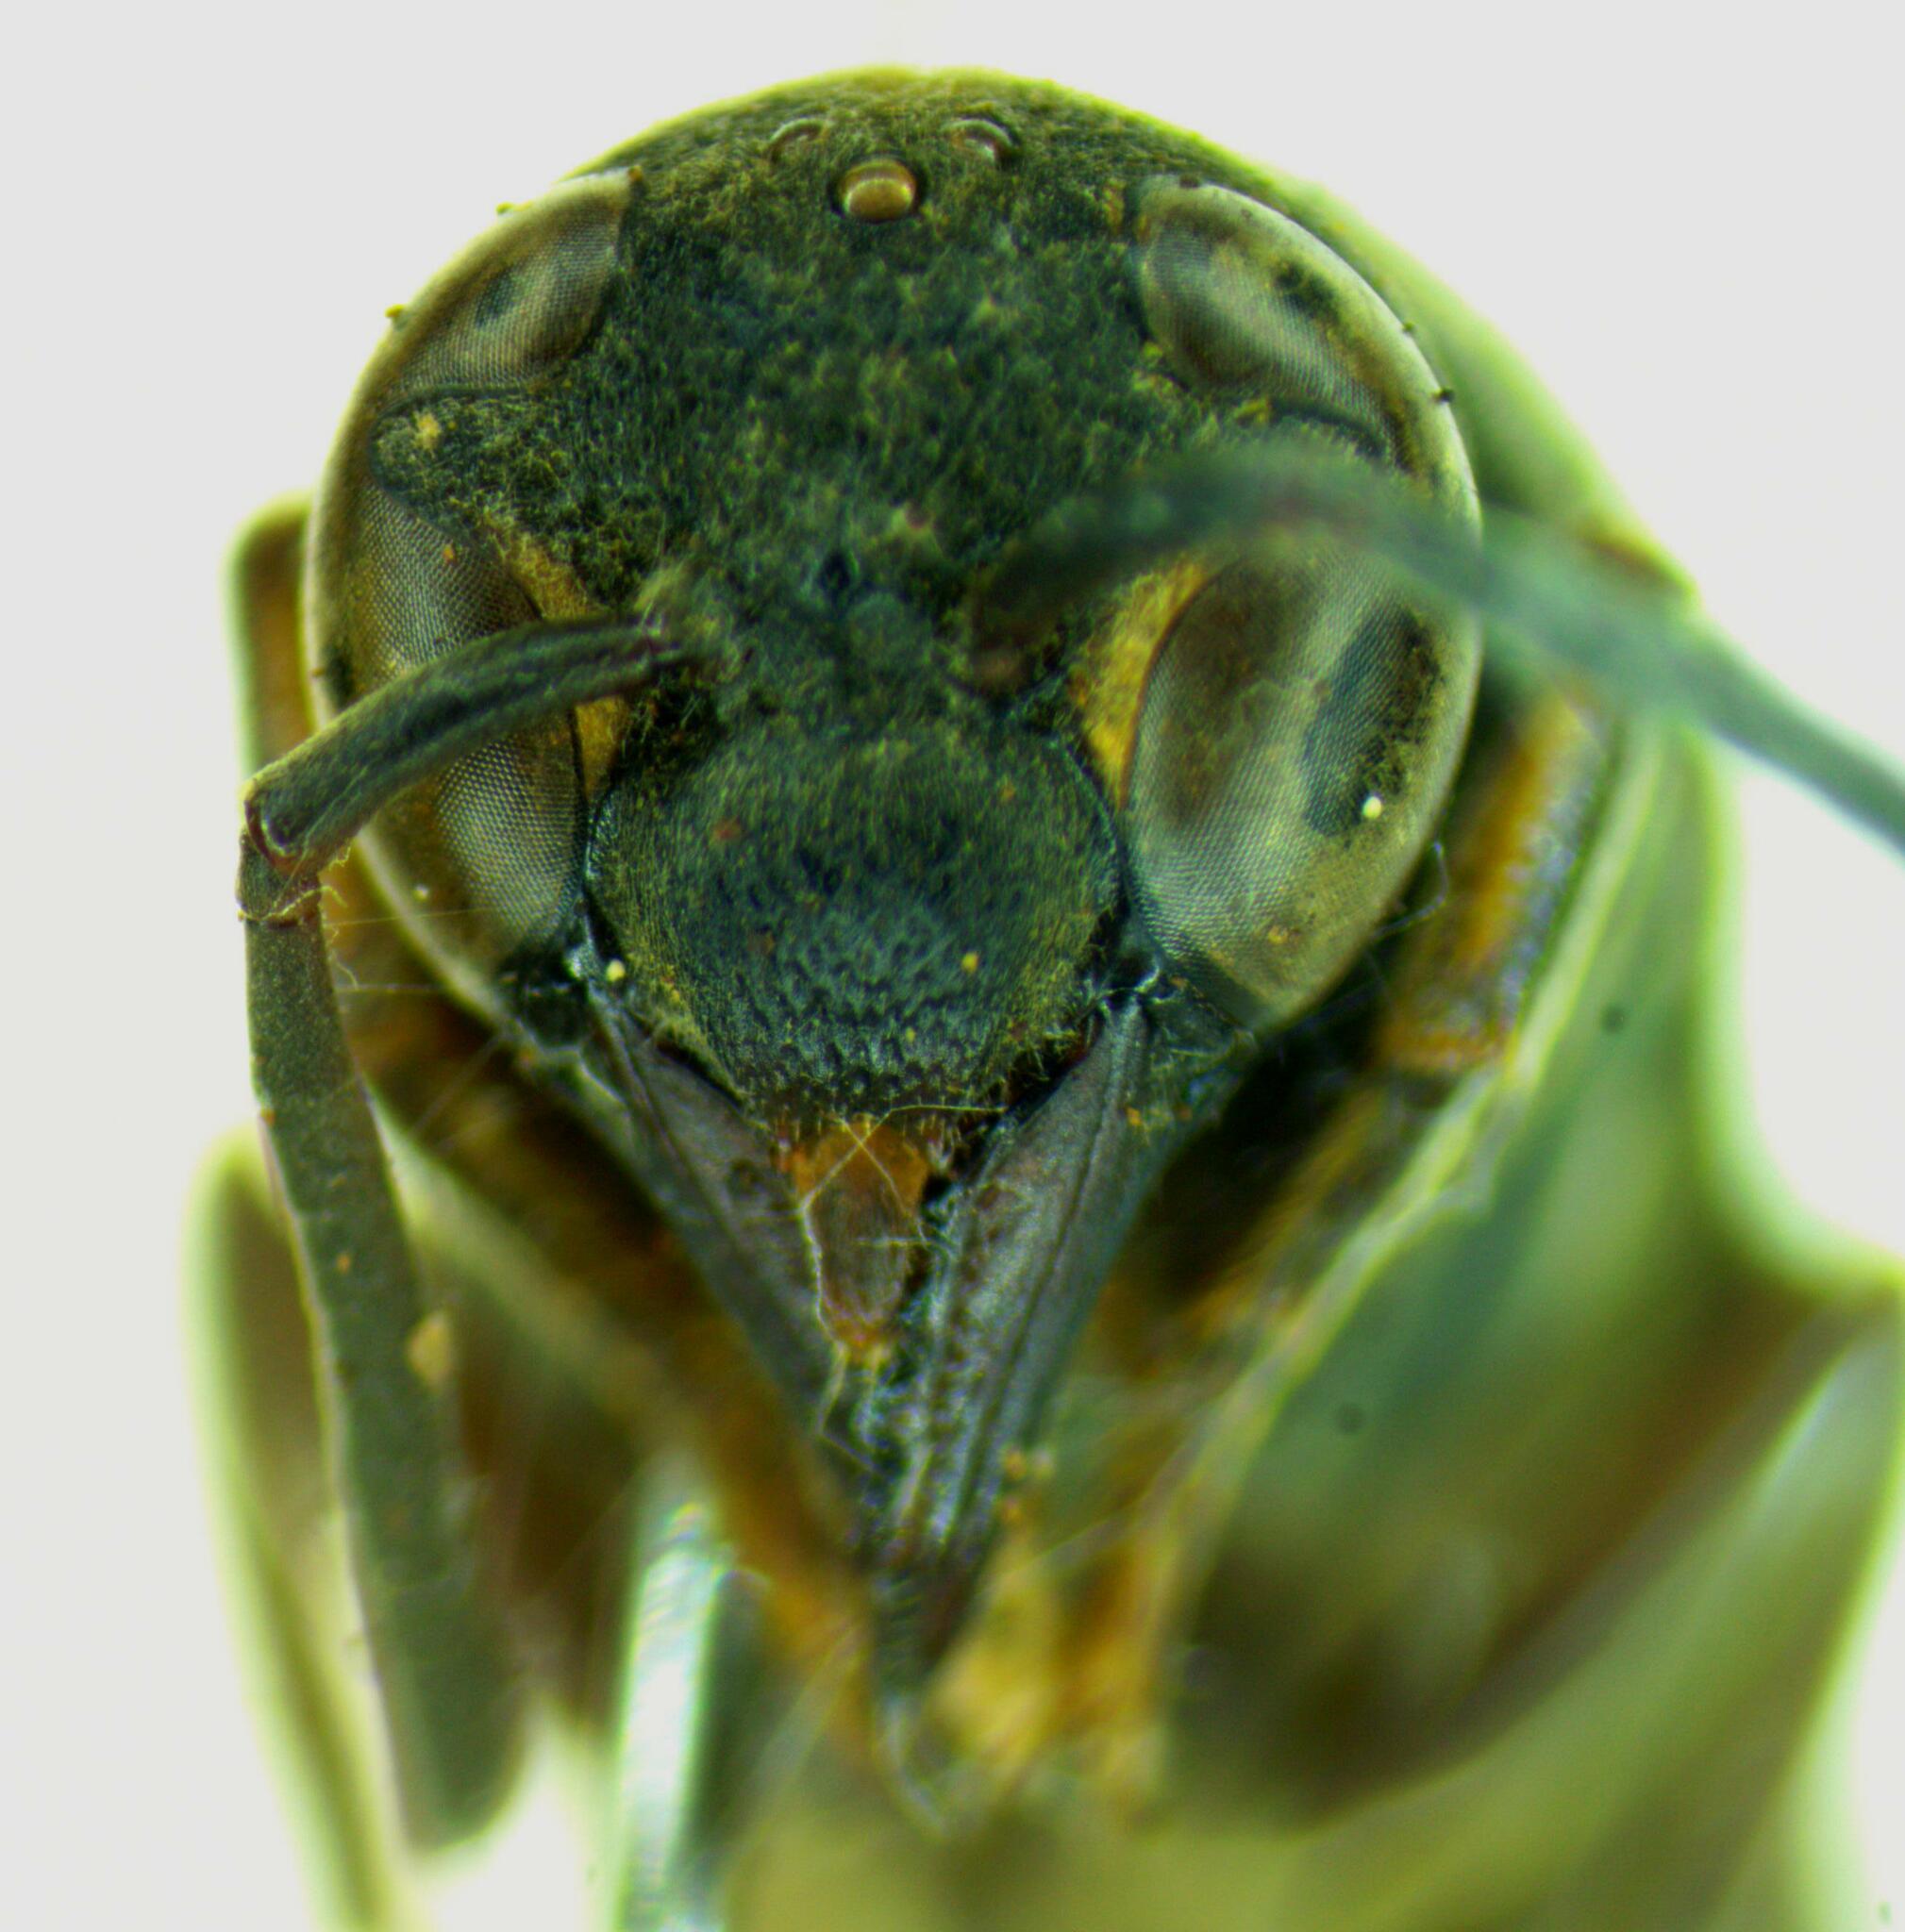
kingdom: Animalia
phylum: Arthropoda
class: Insecta
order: Hymenoptera
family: Eumenidae
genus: Montezumia
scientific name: Montezumia ignobiloides
